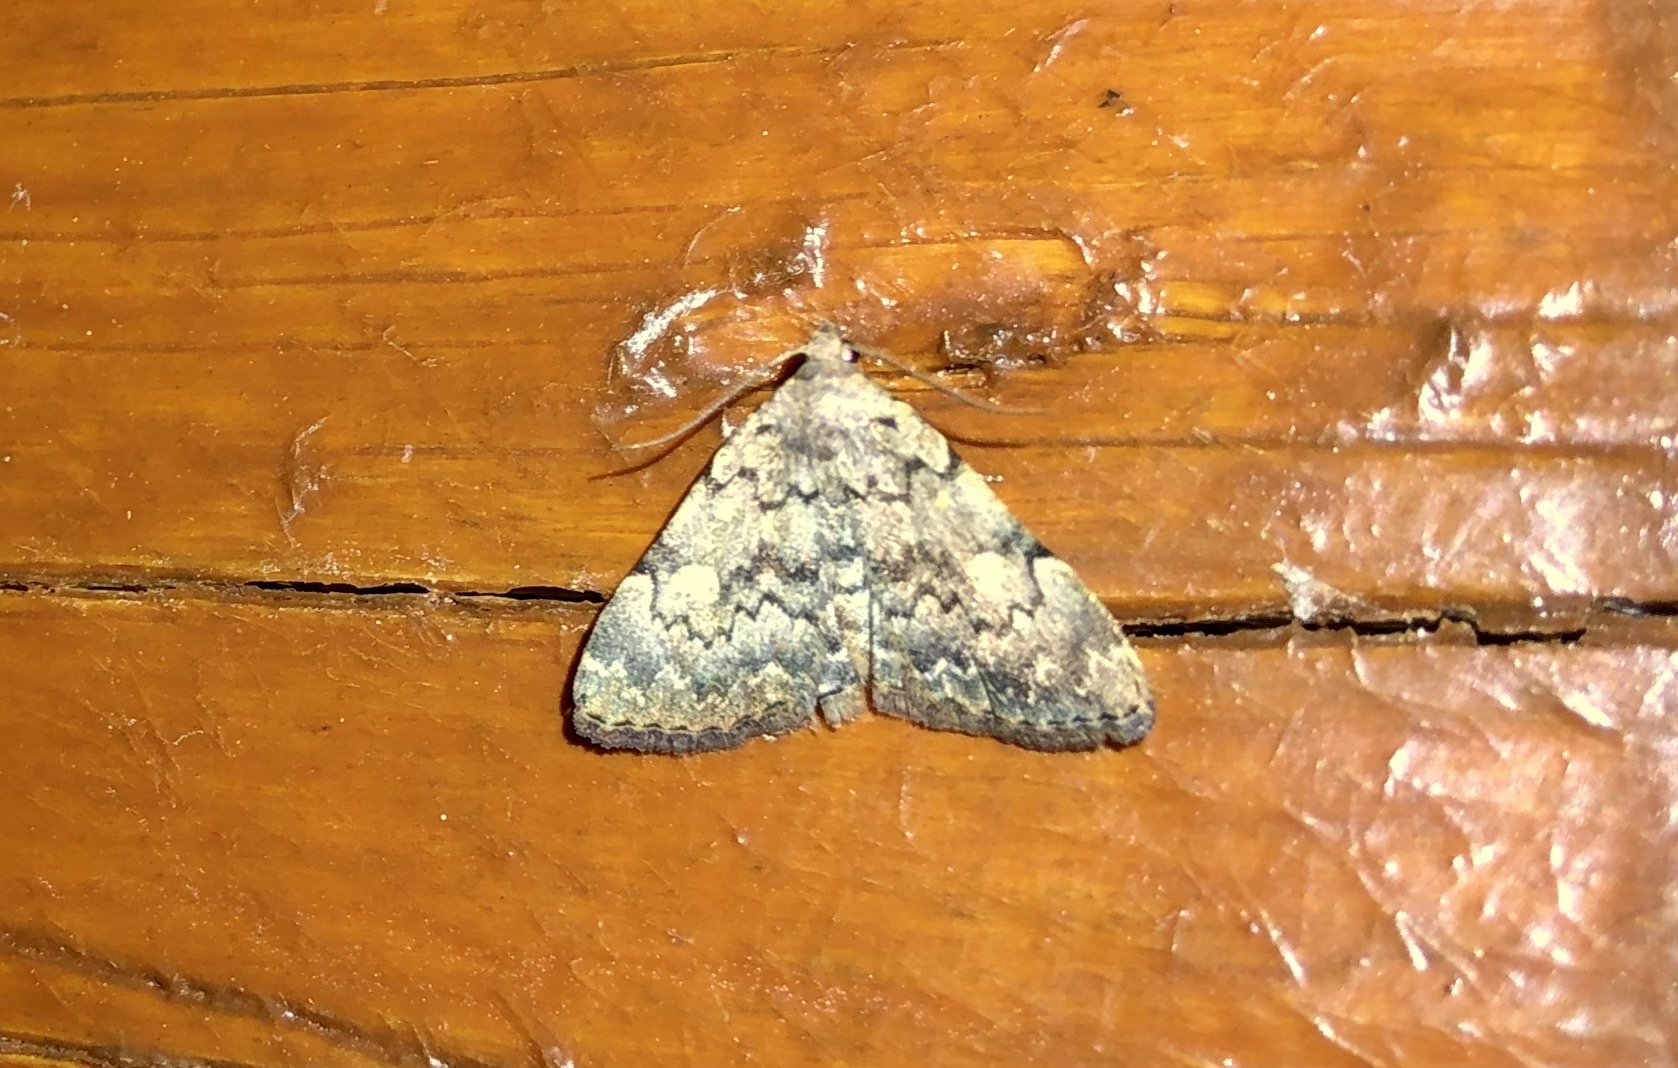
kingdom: Animalia
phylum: Arthropoda
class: Insecta
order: Lepidoptera
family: Erebidae
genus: Idia
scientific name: Idia aemula
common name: Common idia moth
